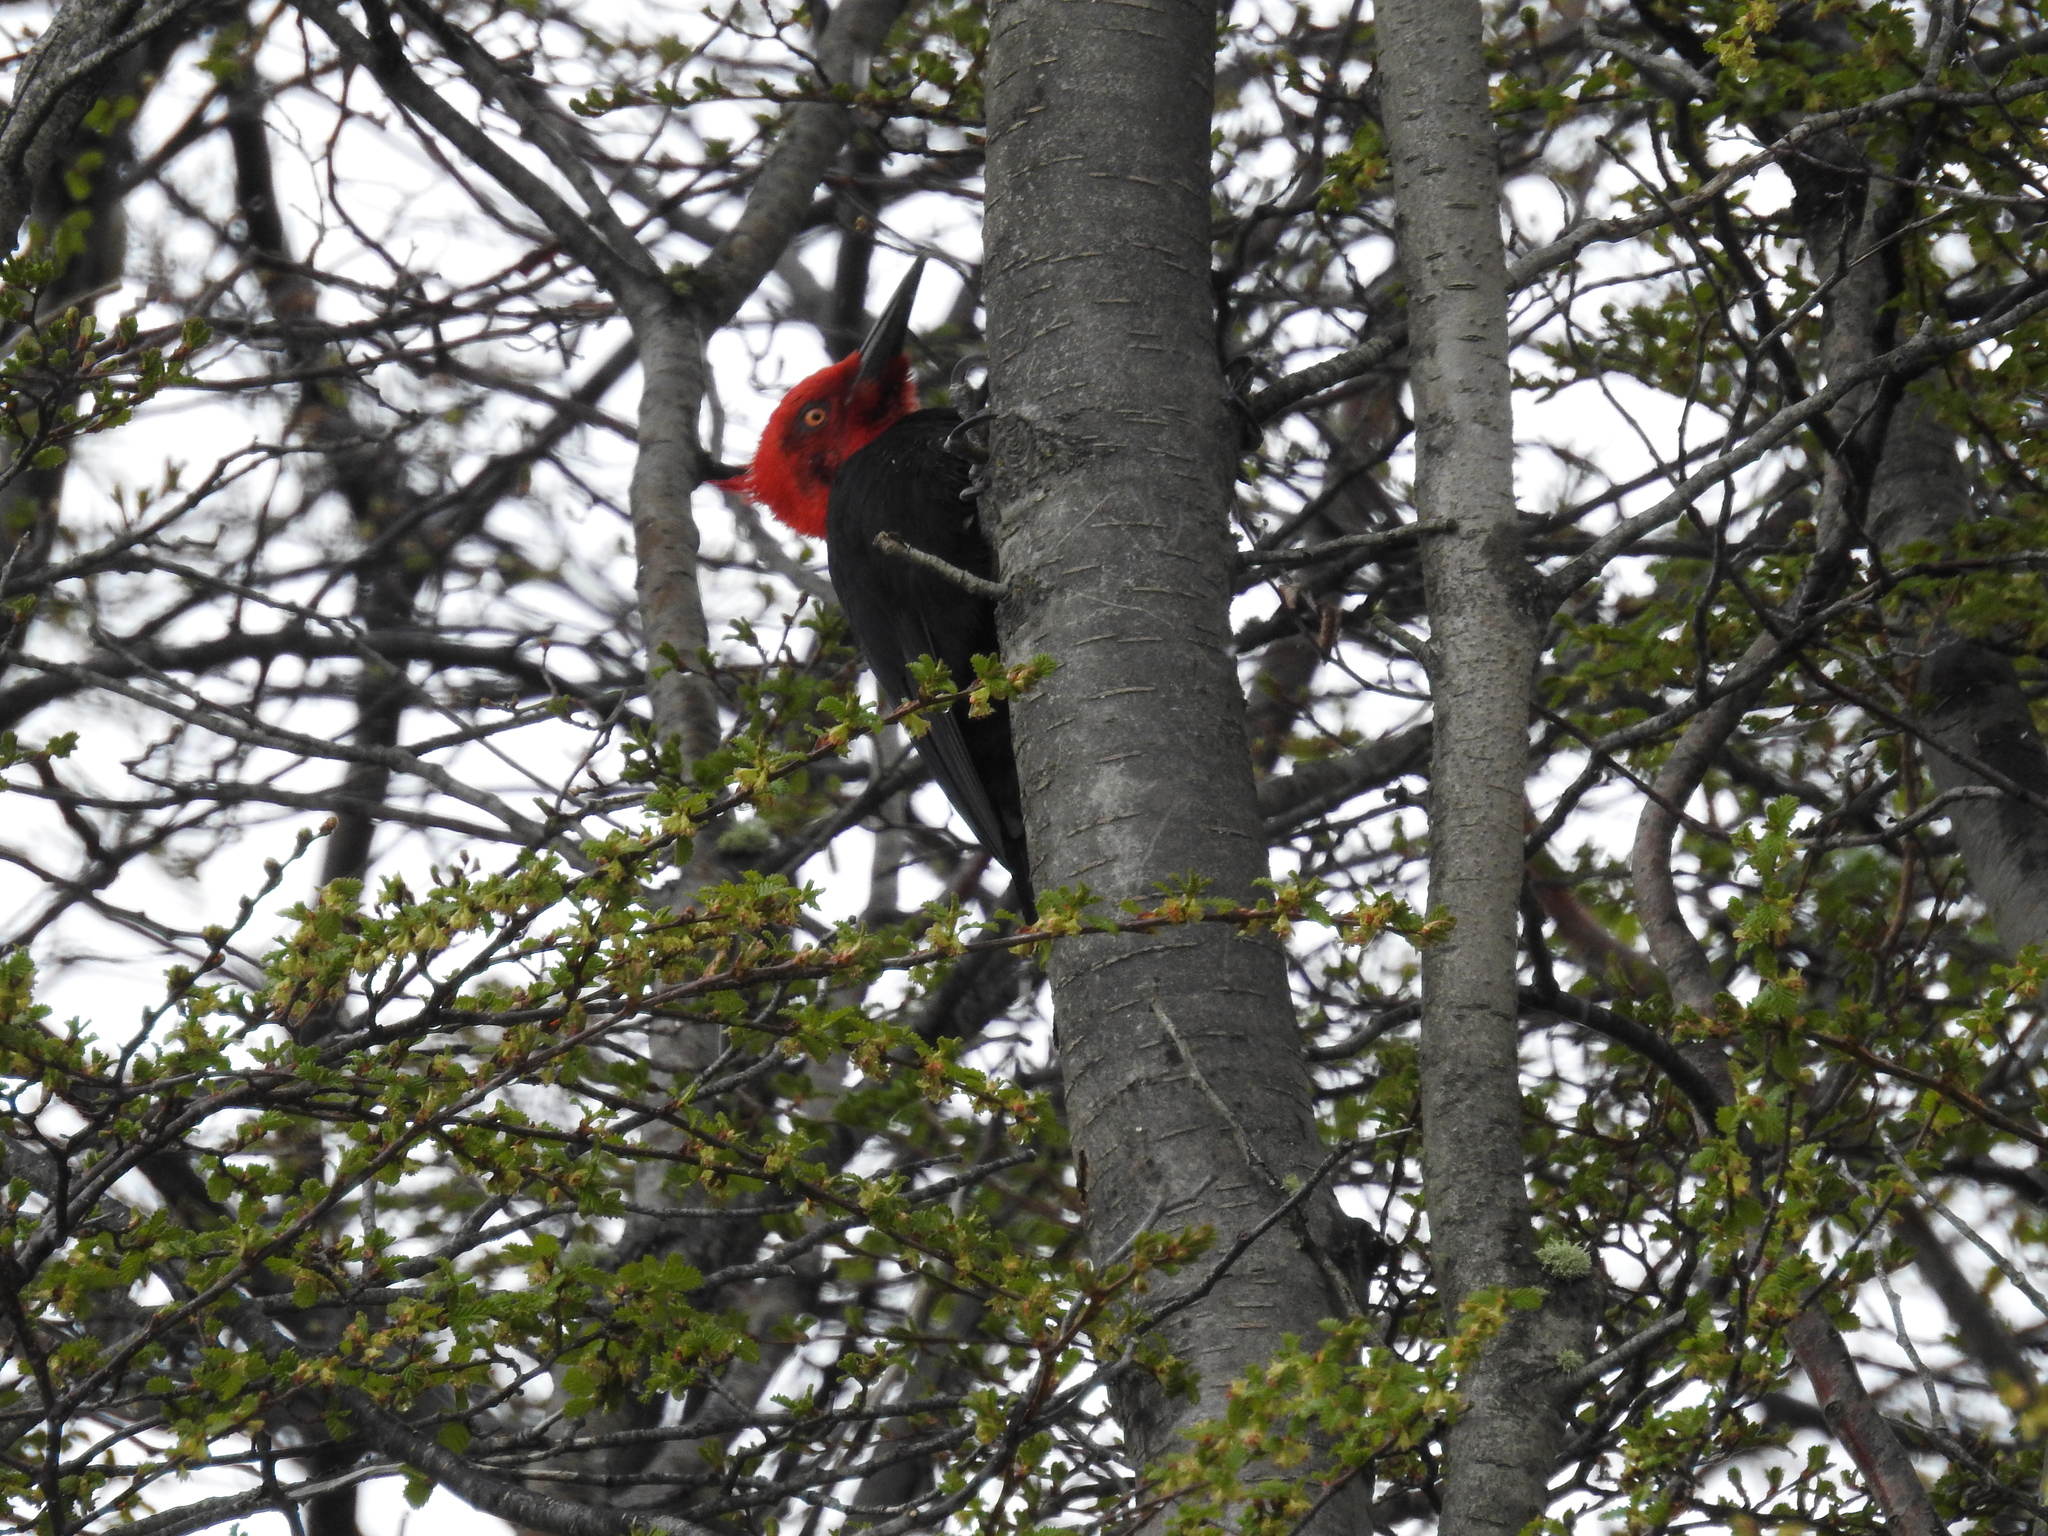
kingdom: Animalia
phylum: Chordata
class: Aves
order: Piciformes
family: Picidae
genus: Campephilus
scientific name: Campephilus magellanicus
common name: Magellanic woodpecker
